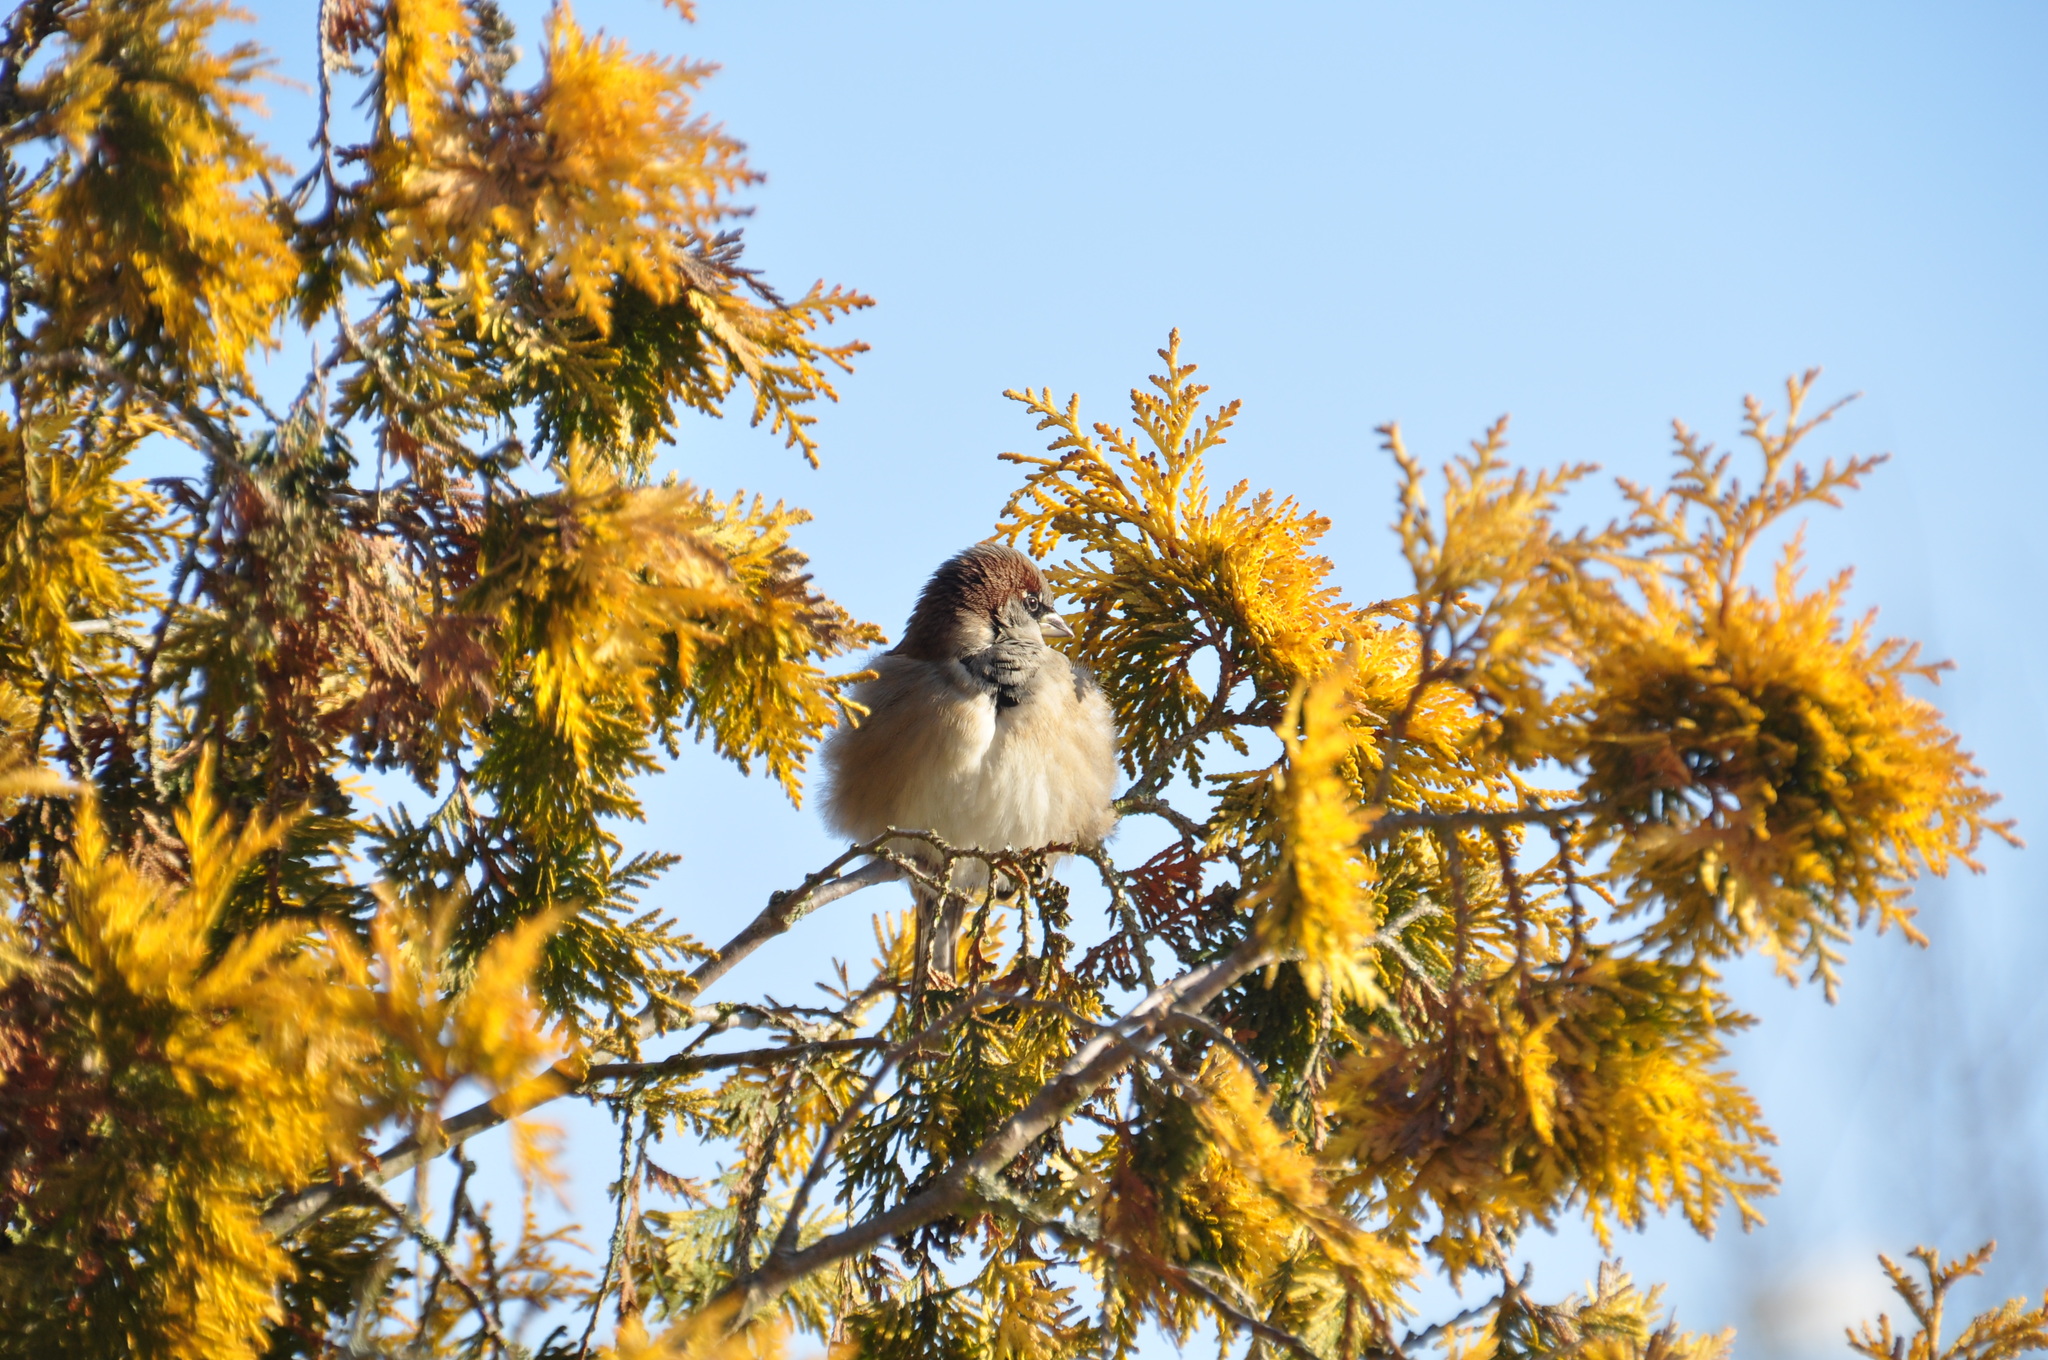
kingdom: Animalia
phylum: Chordata
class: Aves
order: Passeriformes
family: Passeridae
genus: Passer
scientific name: Passer domesticus
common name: House sparrow
